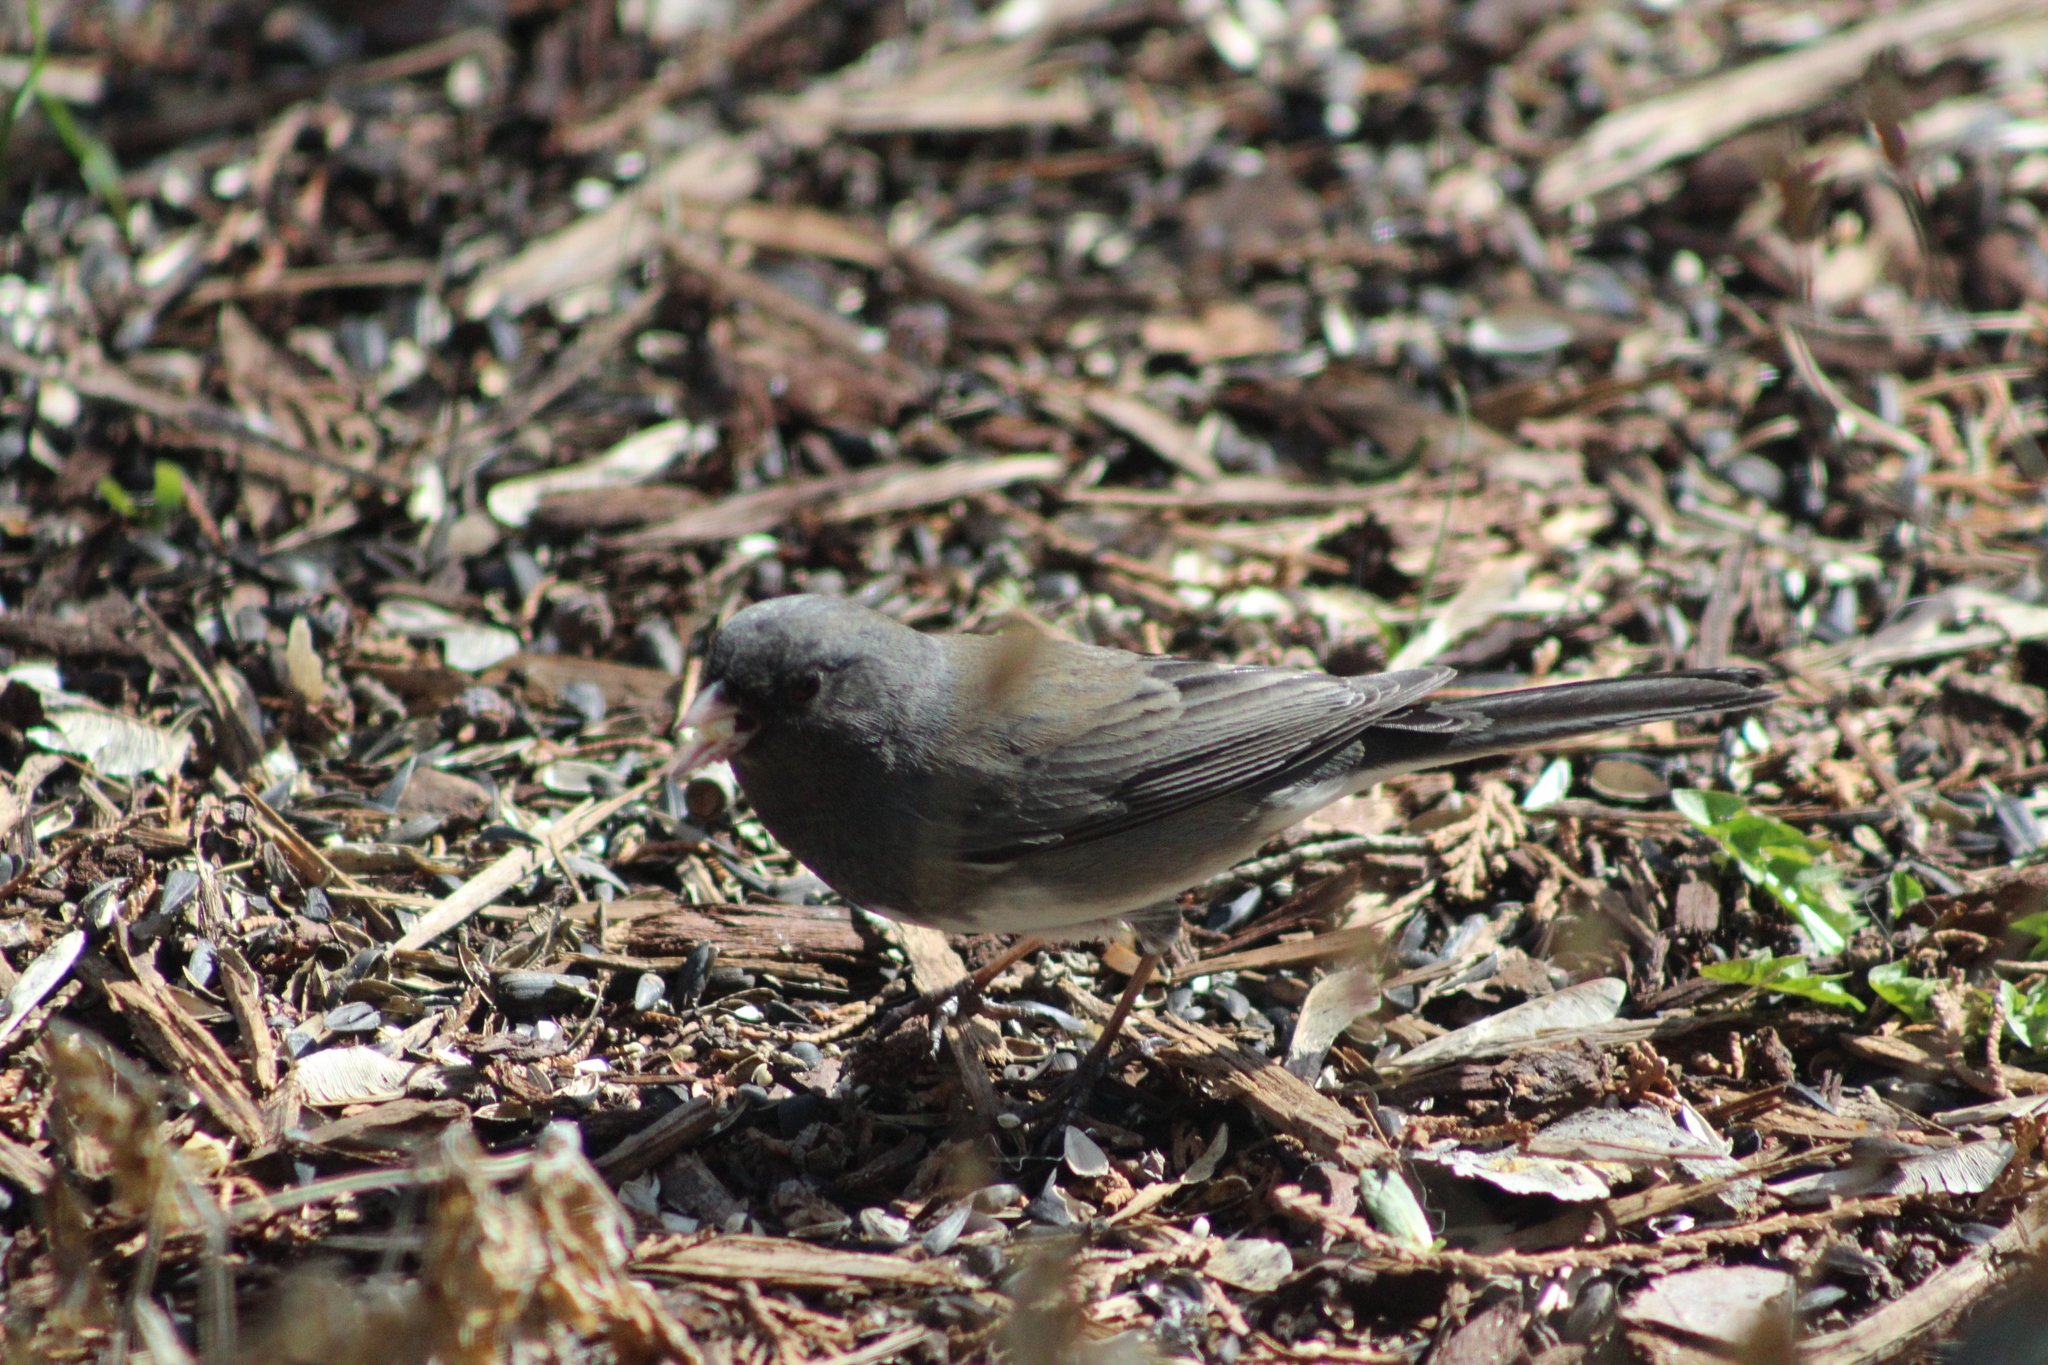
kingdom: Animalia
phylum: Chordata
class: Aves
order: Passeriformes
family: Passerellidae
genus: Junco
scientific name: Junco hyemalis
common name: Dark-eyed junco
